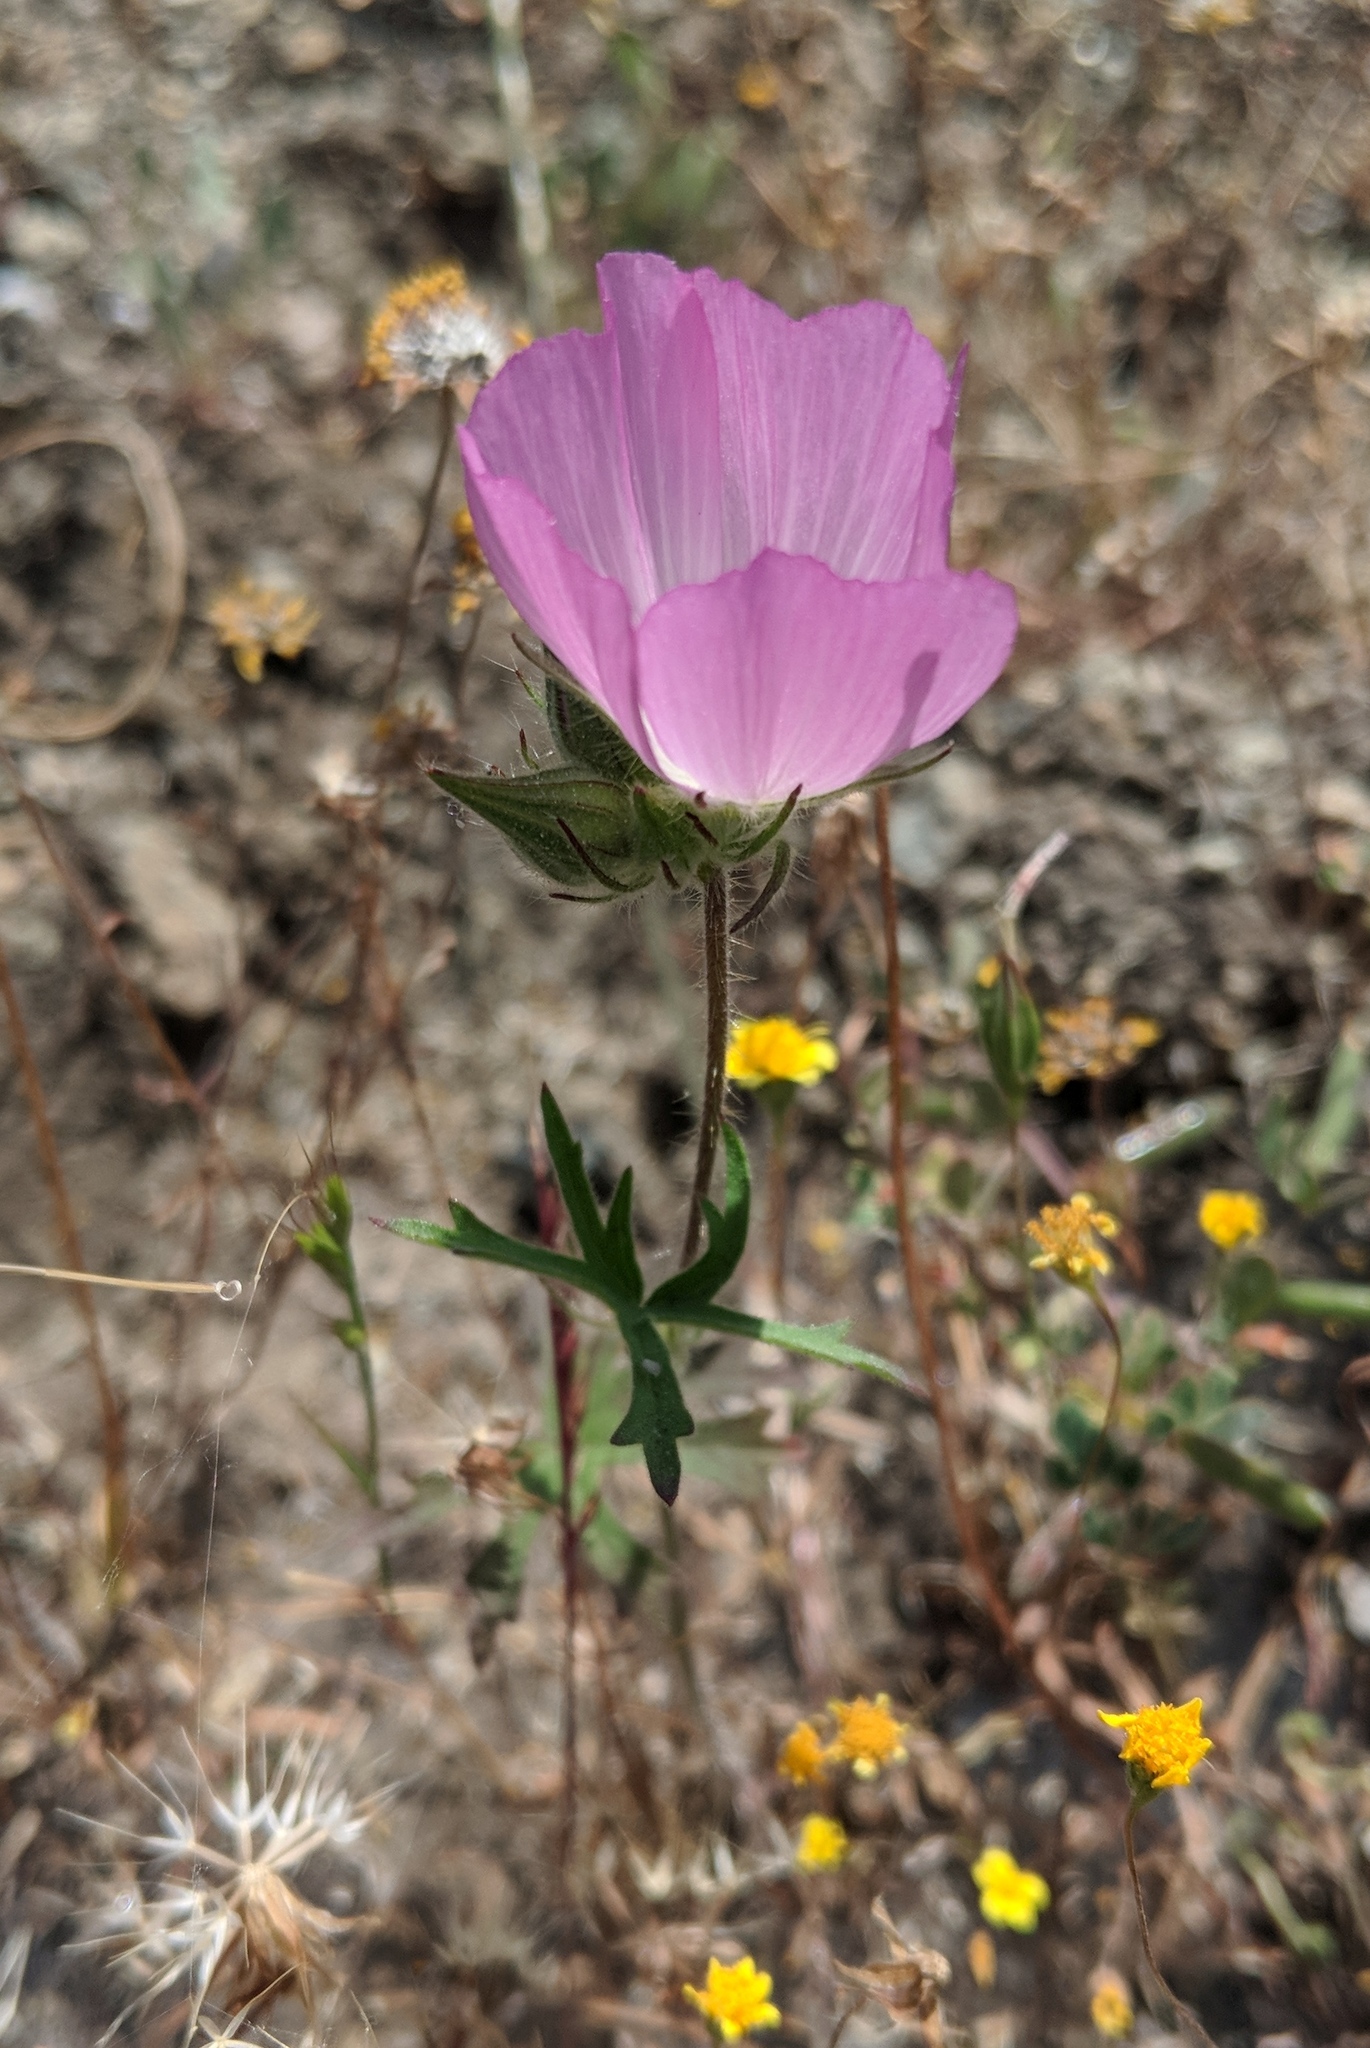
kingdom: Plantae
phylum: Tracheophyta
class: Magnoliopsida
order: Malvales
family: Malvaceae
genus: Sidalcea
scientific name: Sidalcea diploscypha
